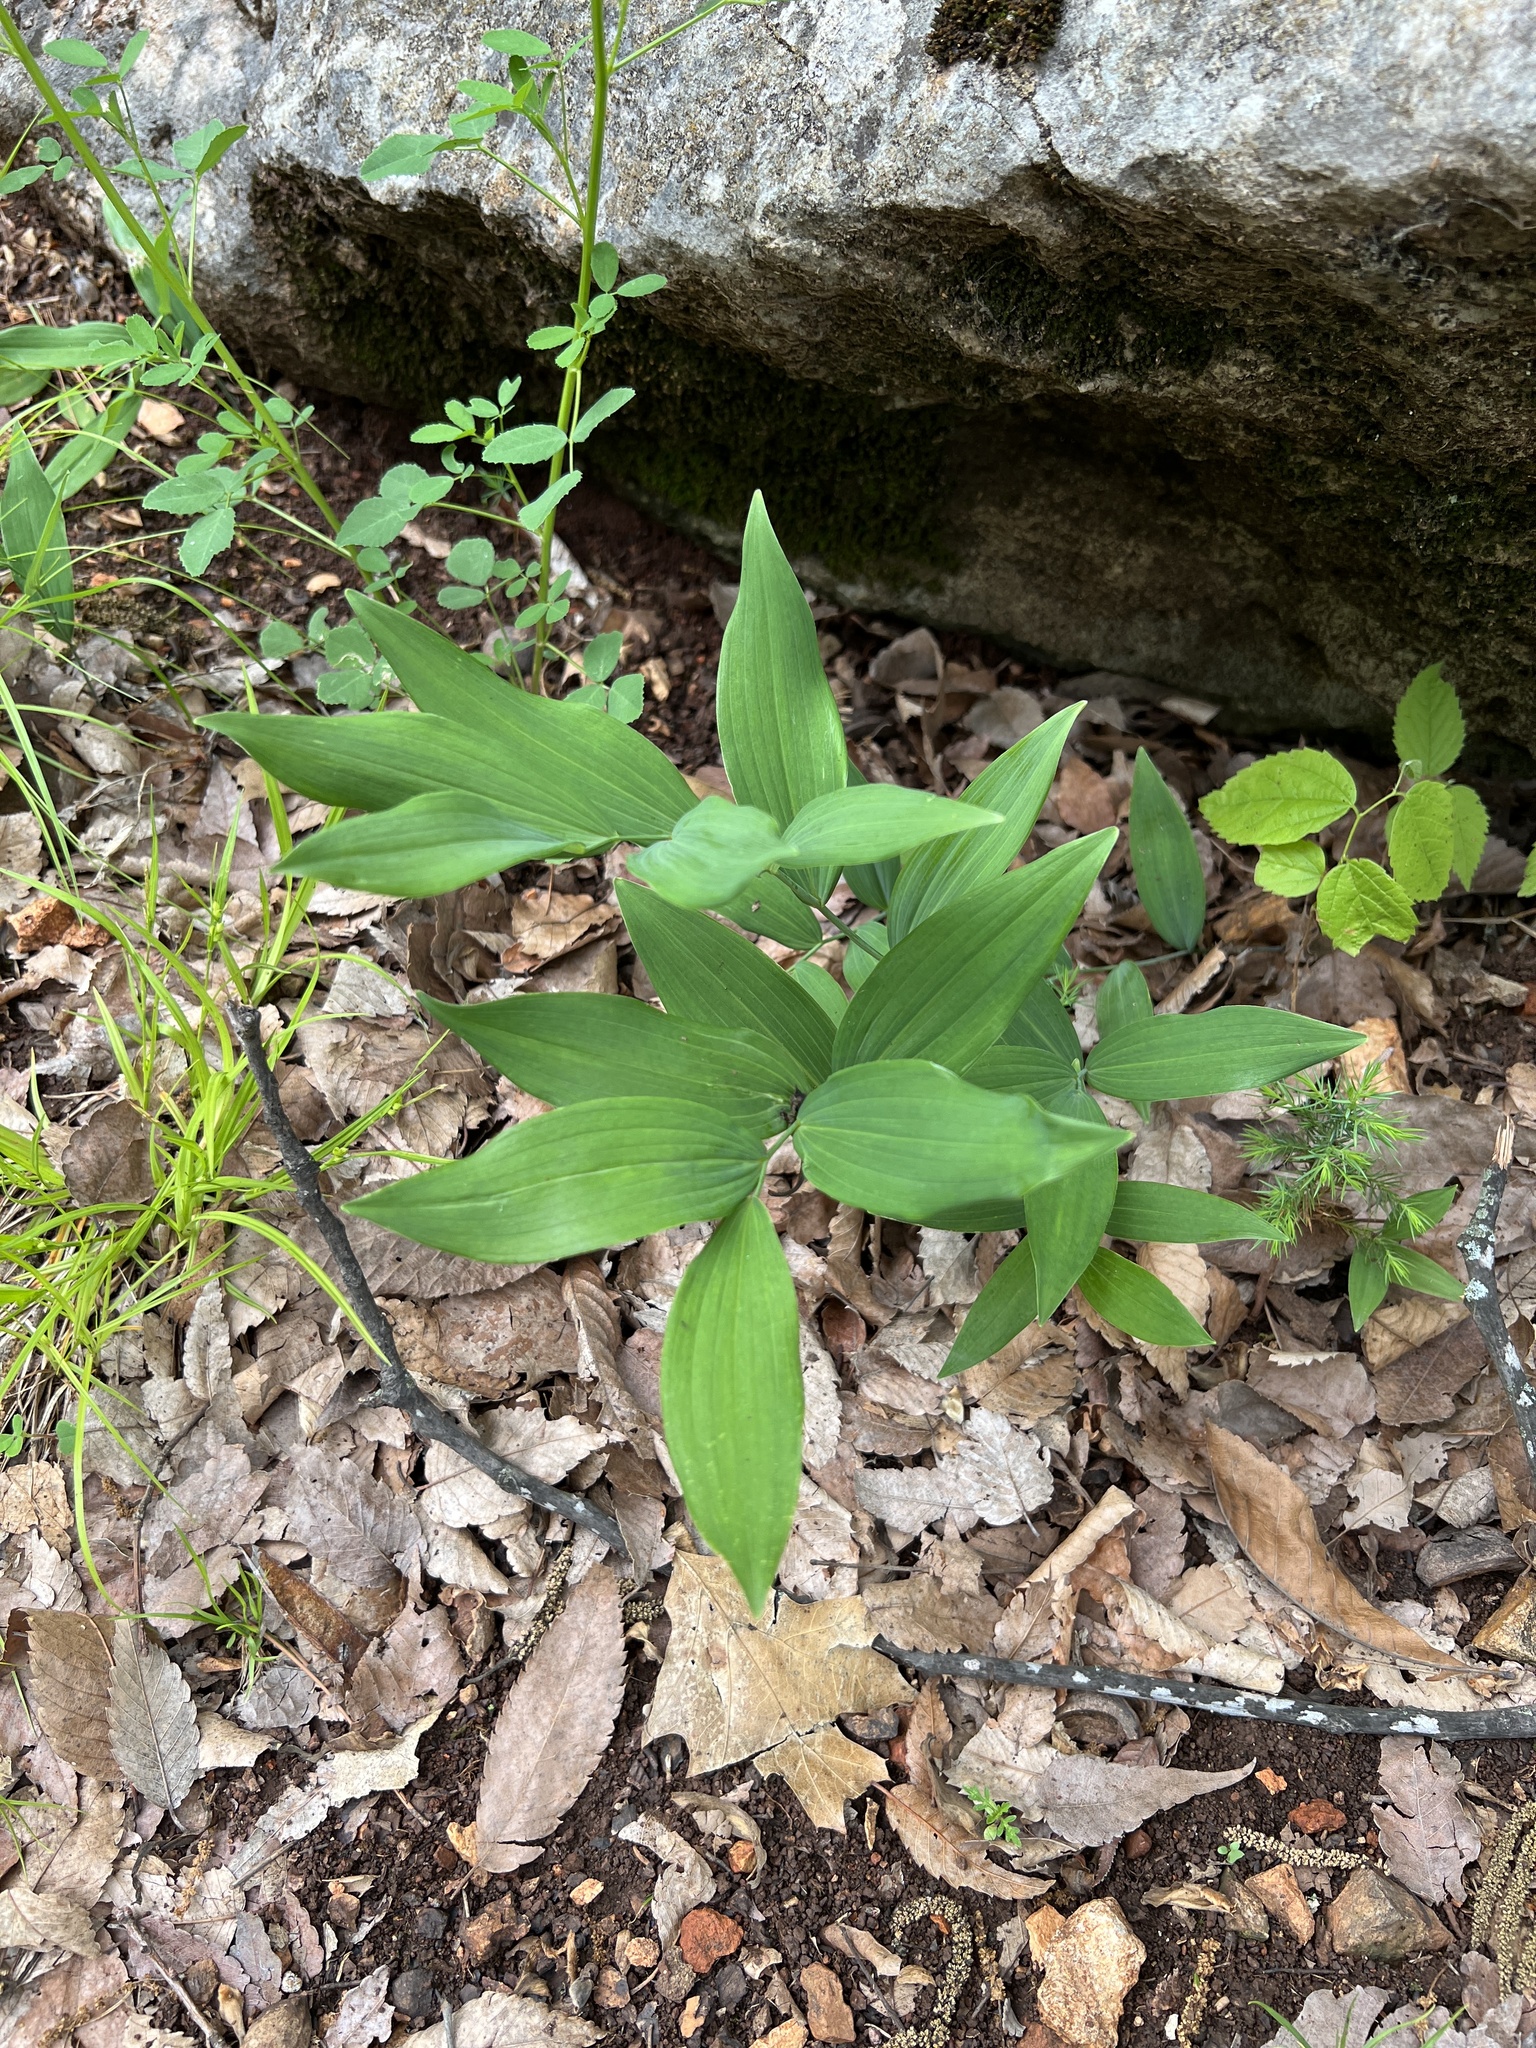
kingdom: Plantae
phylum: Tracheophyta
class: Liliopsida
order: Asparagales
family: Asparagaceae
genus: Polygonatum
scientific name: Polygonatum biflorum
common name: American solomon's-seal
